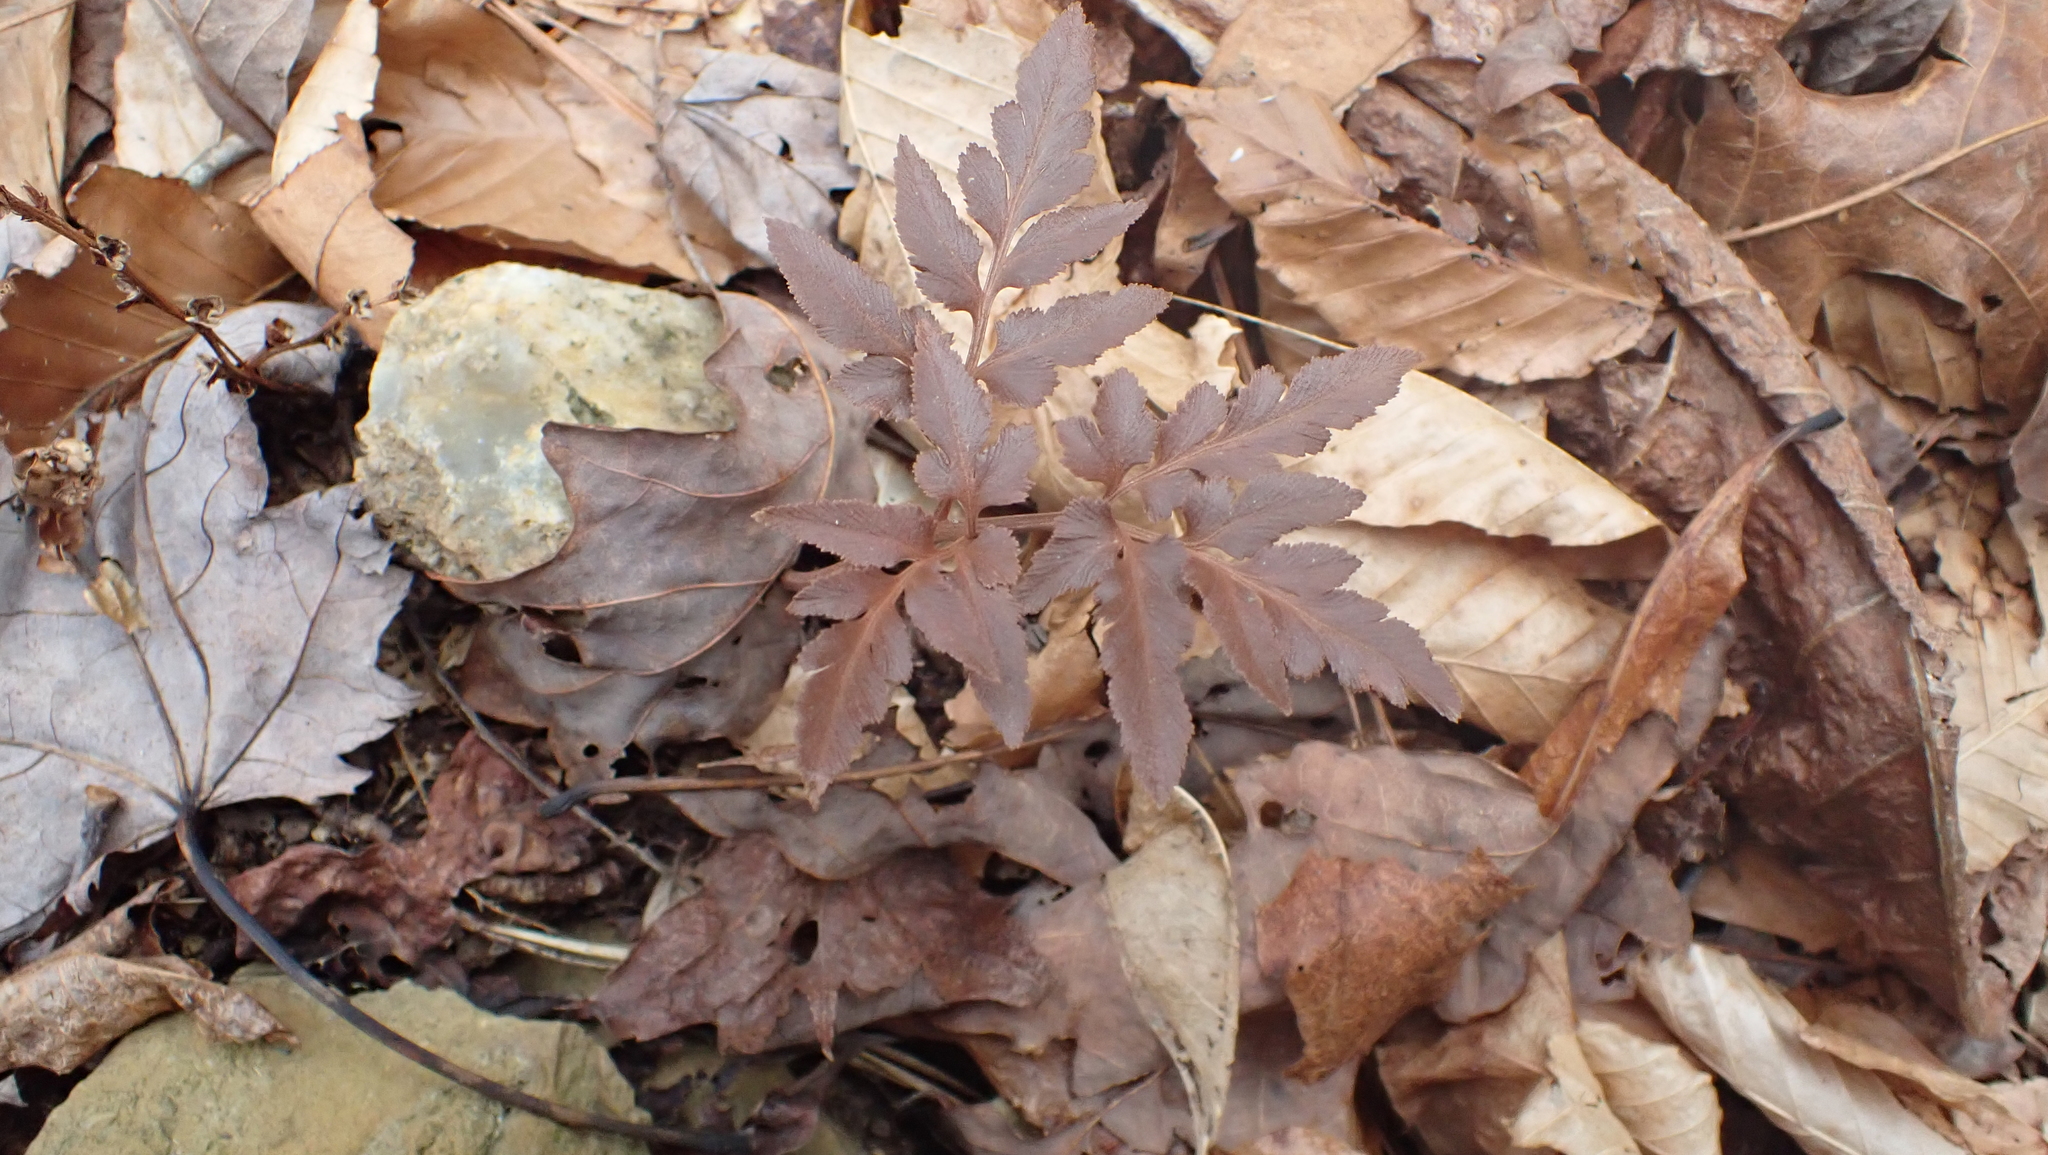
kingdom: Plantae
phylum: Tracheophyta
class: Polypodiopsida
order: Ophioglossales
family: Ophioglossaceae
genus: Sceptridium
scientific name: Sceptridium dissectum
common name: Cut-leaved grapefern
